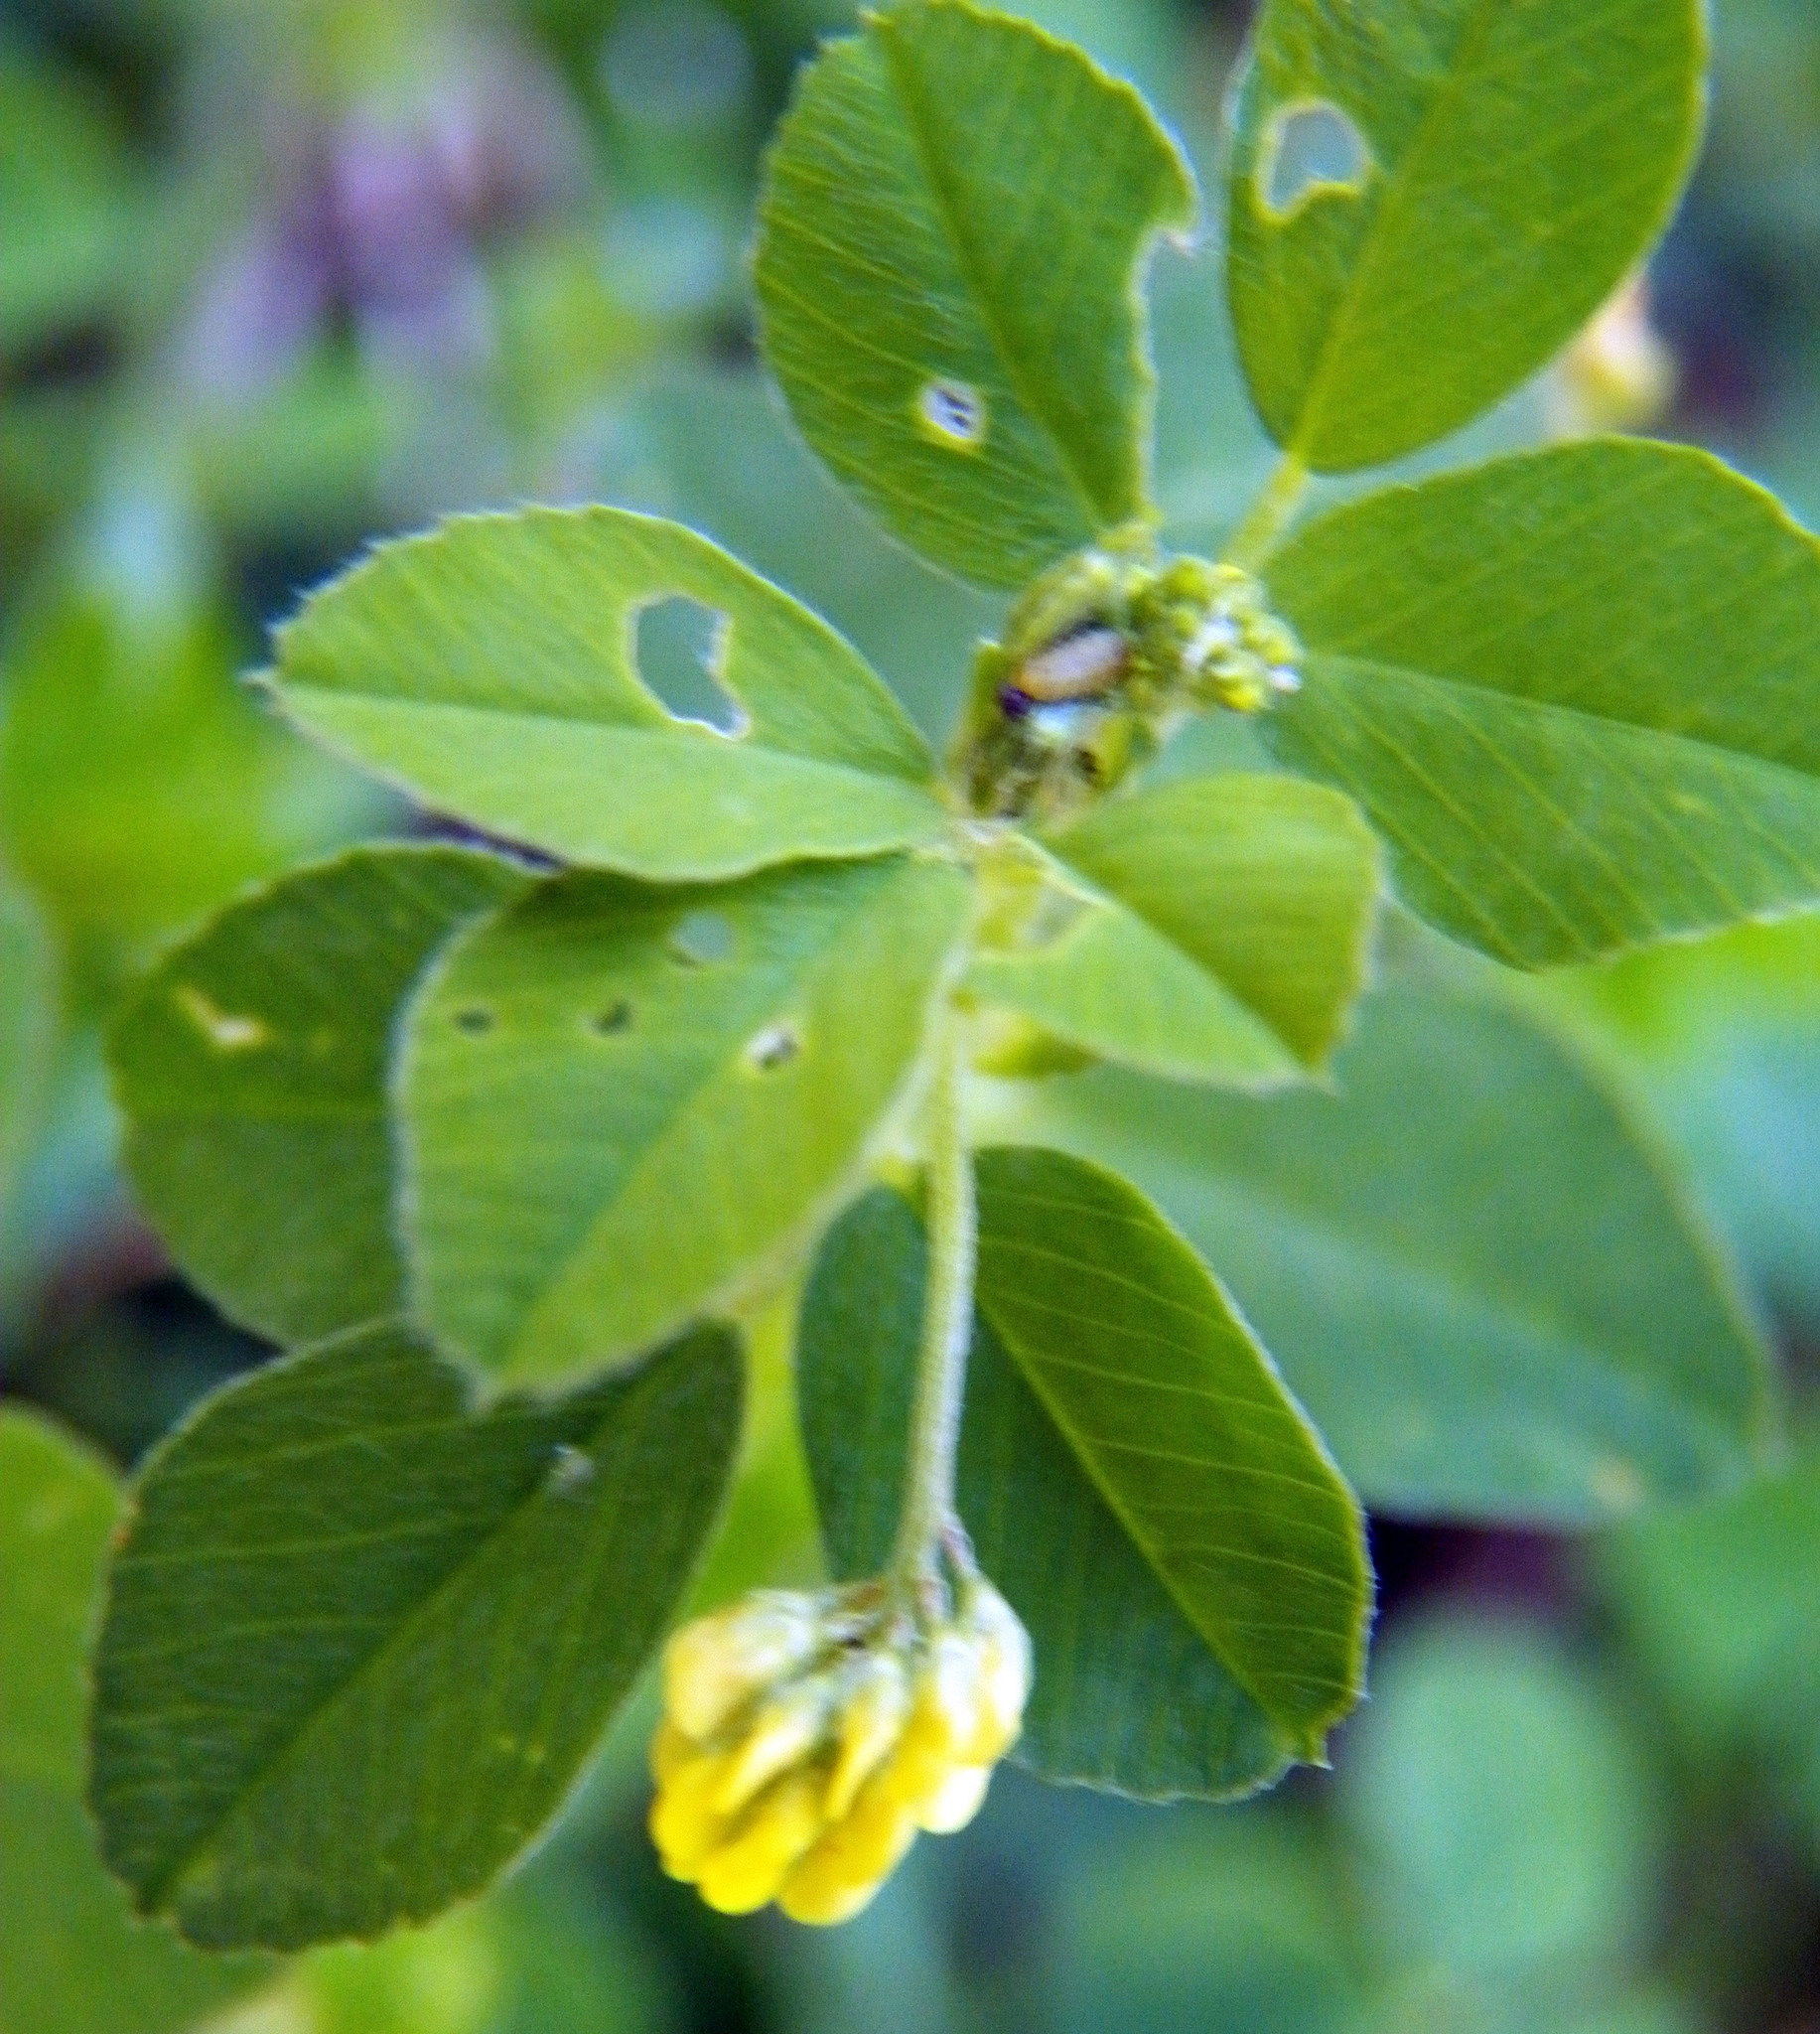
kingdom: Plantae
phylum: Tracheophyta
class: Magnoliopsida
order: Fabales
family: Fabaceae
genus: Medicago
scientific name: Medicago lupulina
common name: Black medick
